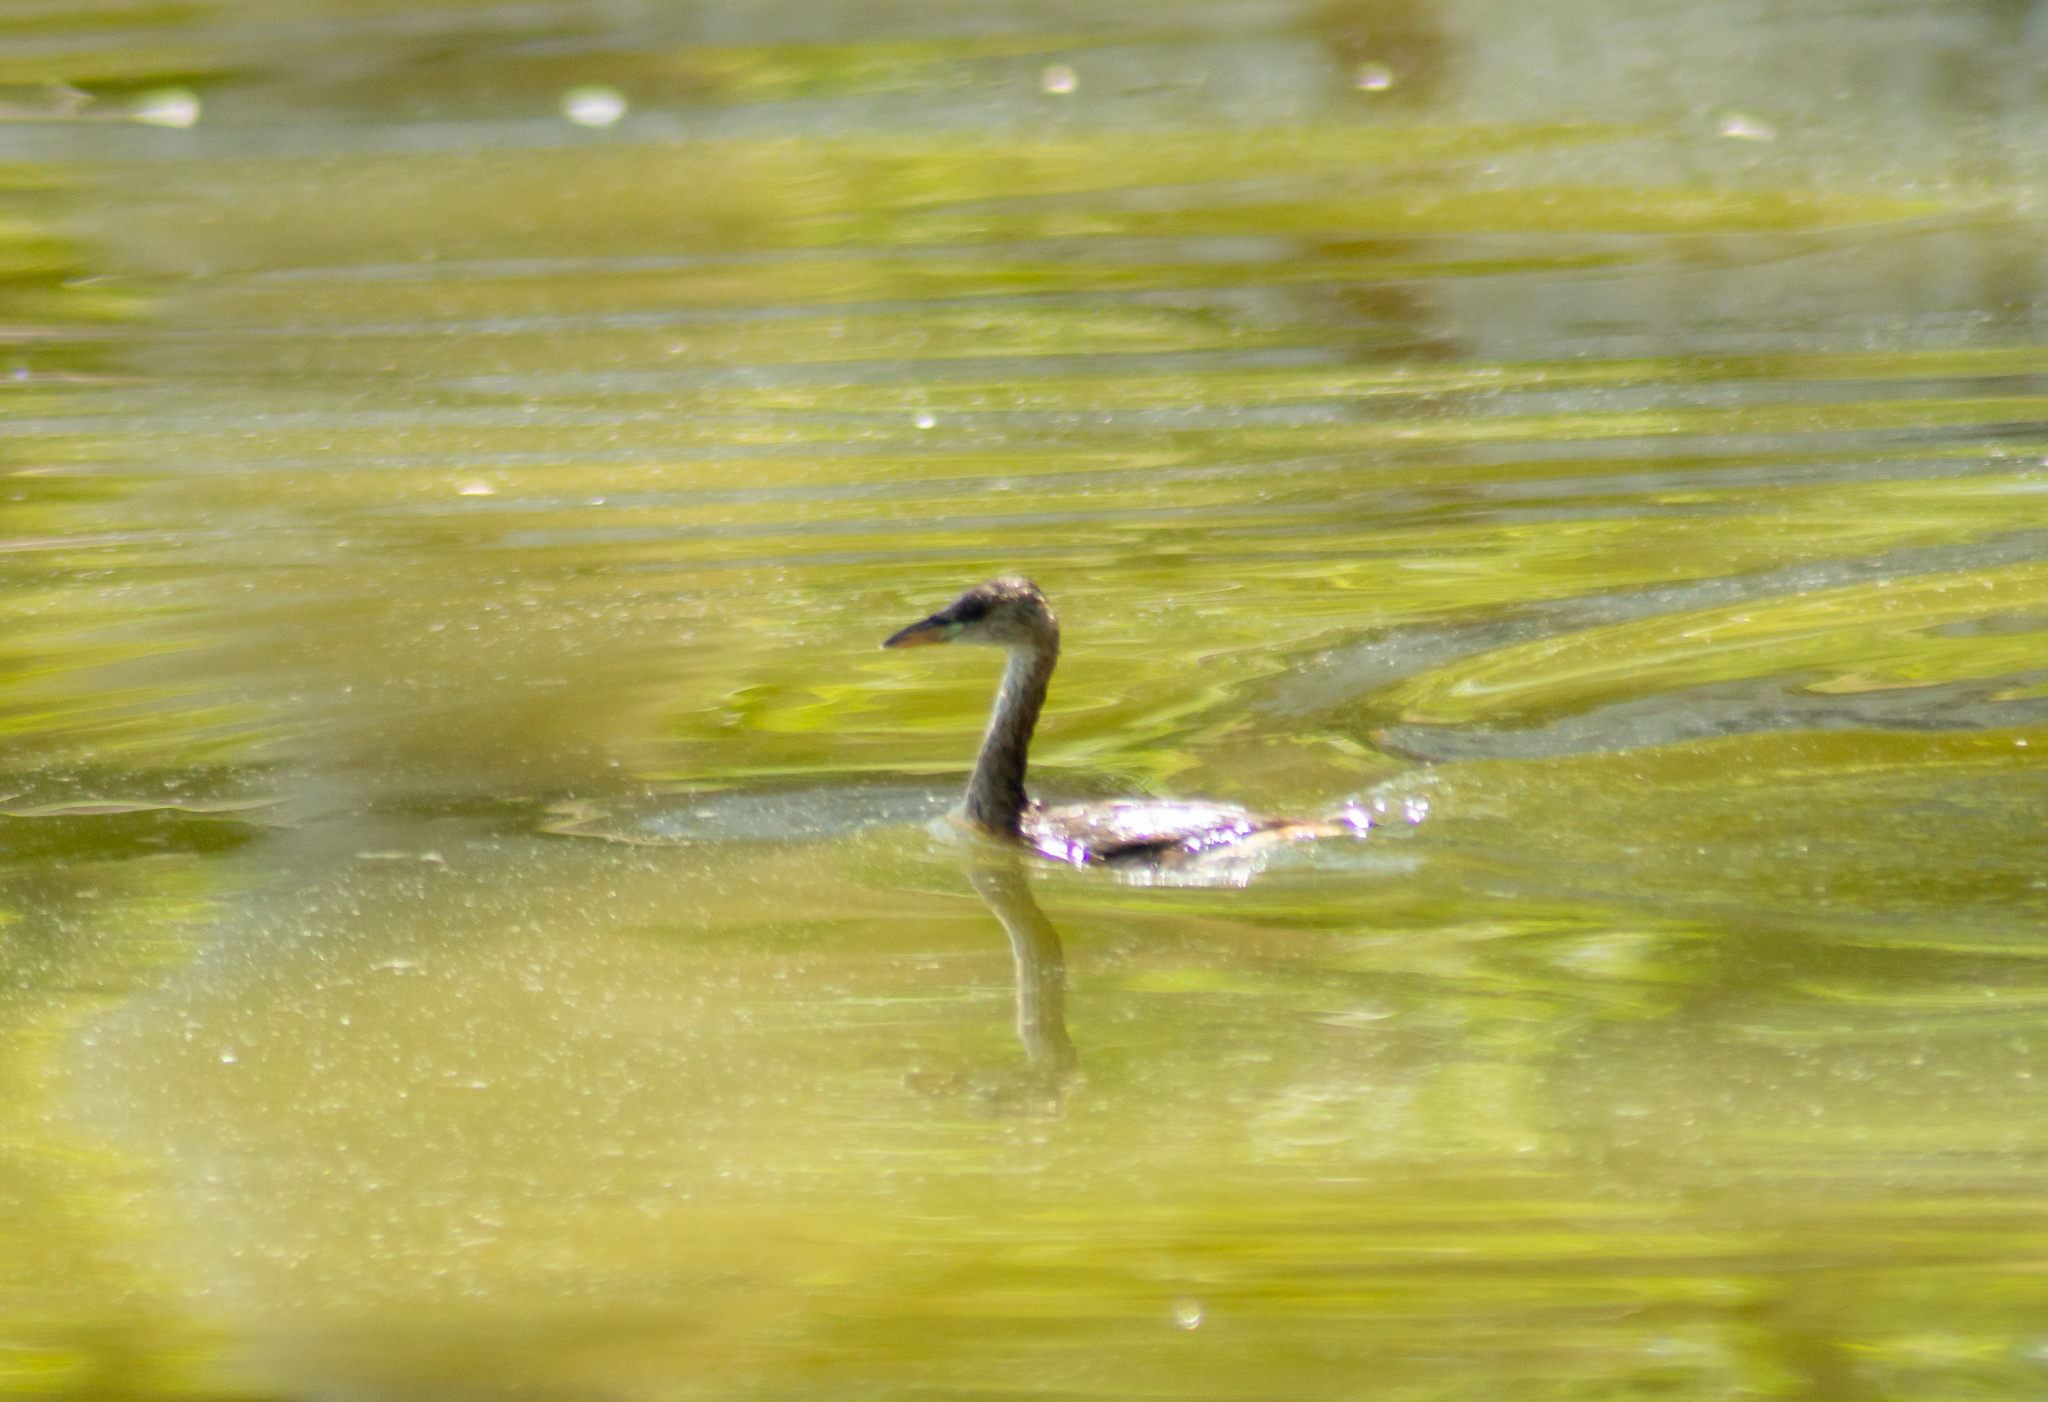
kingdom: Animalia
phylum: Chordata
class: Aves
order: Podicipediformes
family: Podicipedidae
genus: Tachybaptus
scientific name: Tachybaptus ruficollis
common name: Little grebe
